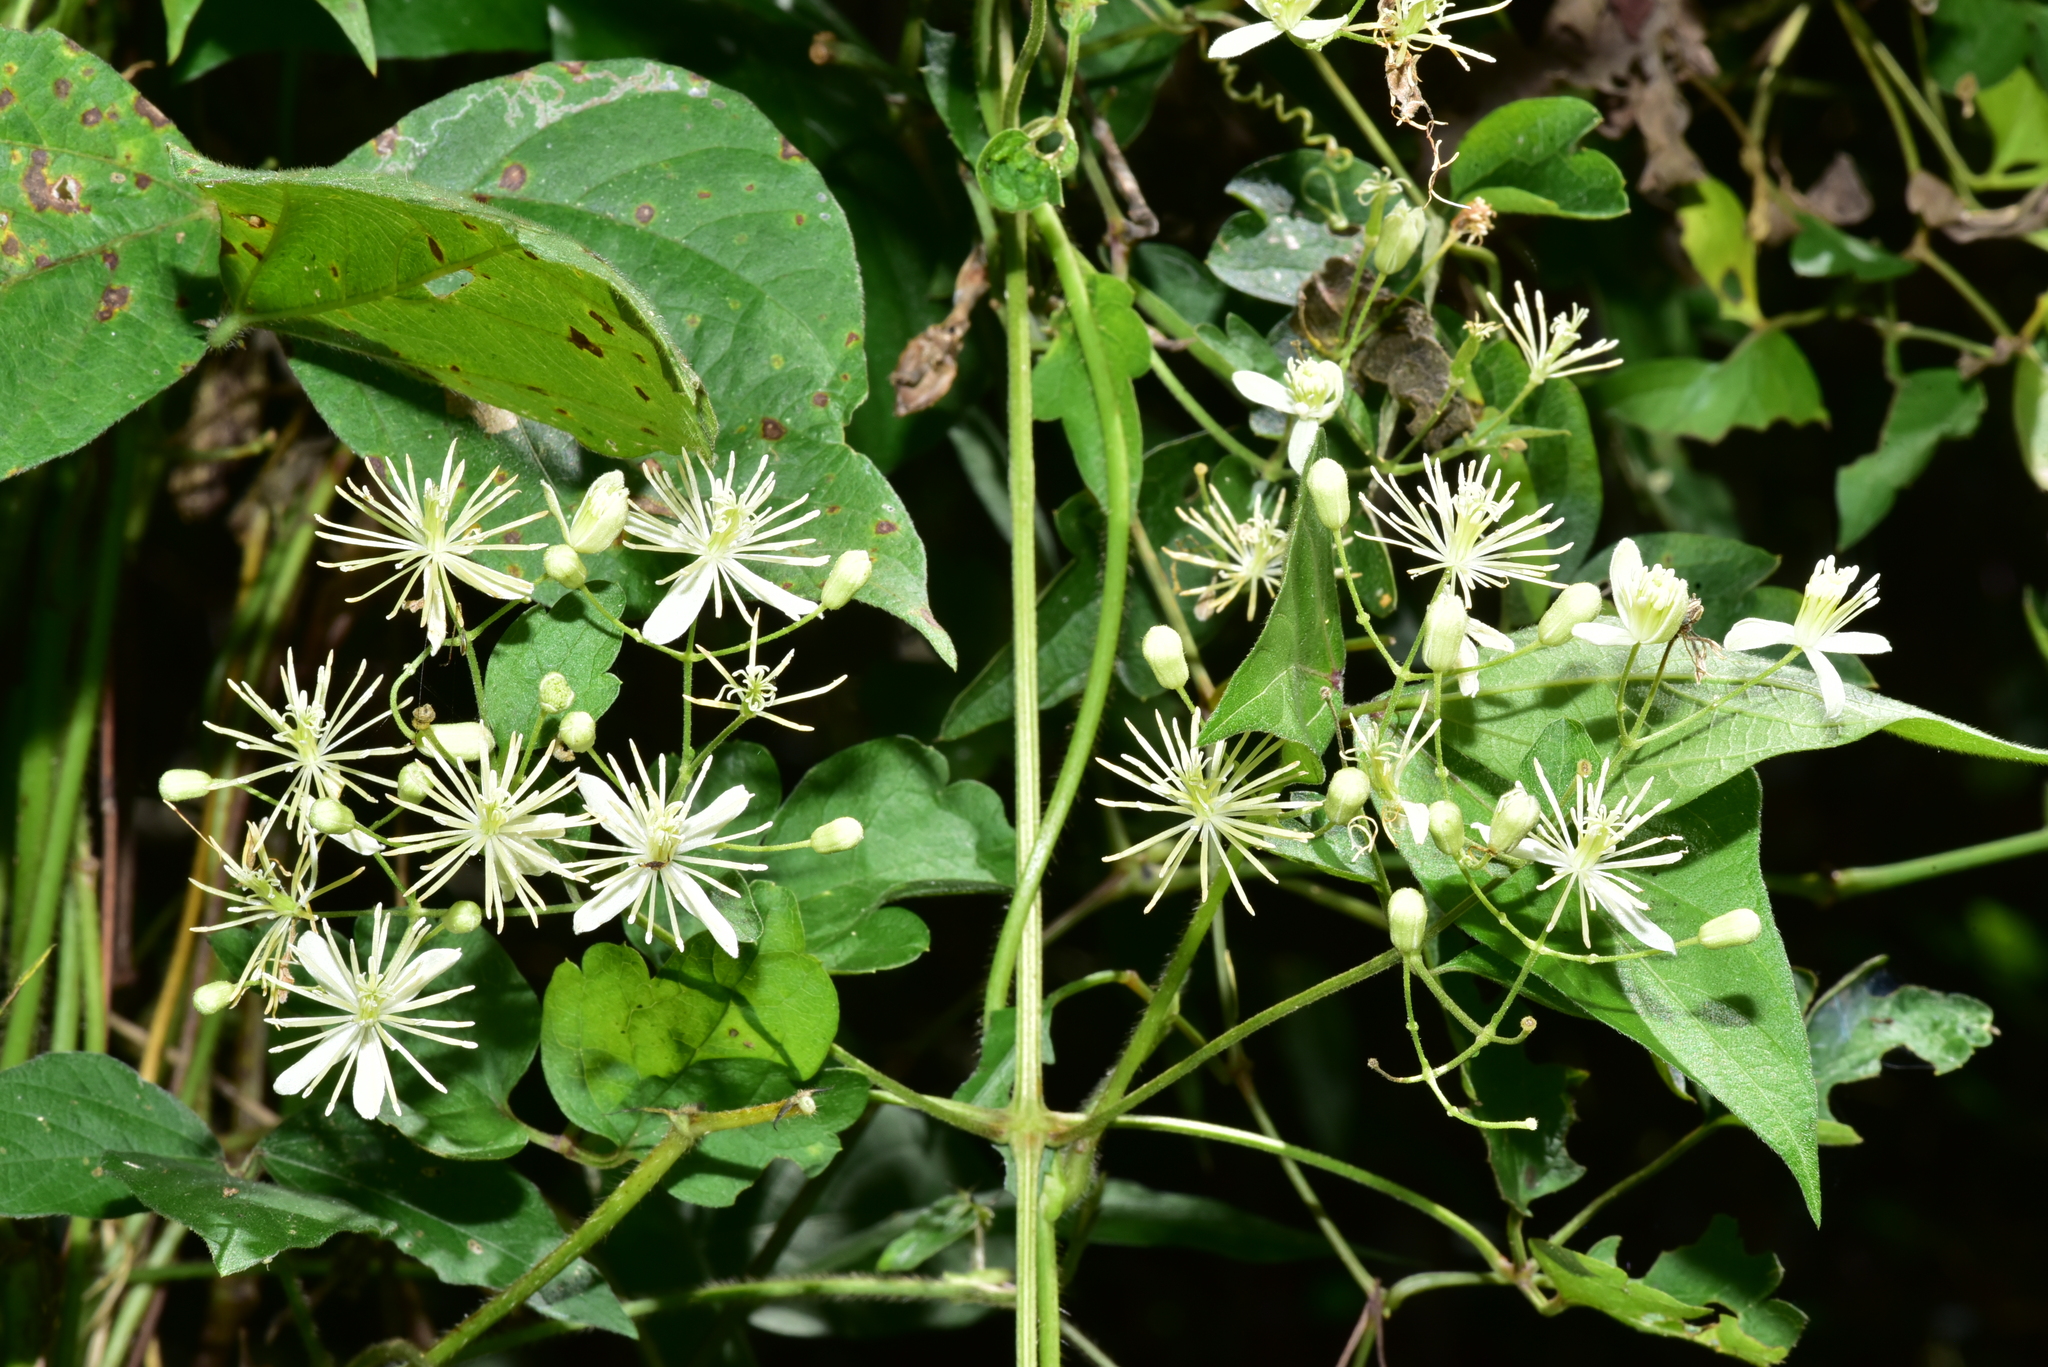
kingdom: Plantae
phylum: Tracheophyta
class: Magnoliopsida
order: Ranunculales
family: Ranunculaceae
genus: Clematis
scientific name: Clematis grata
